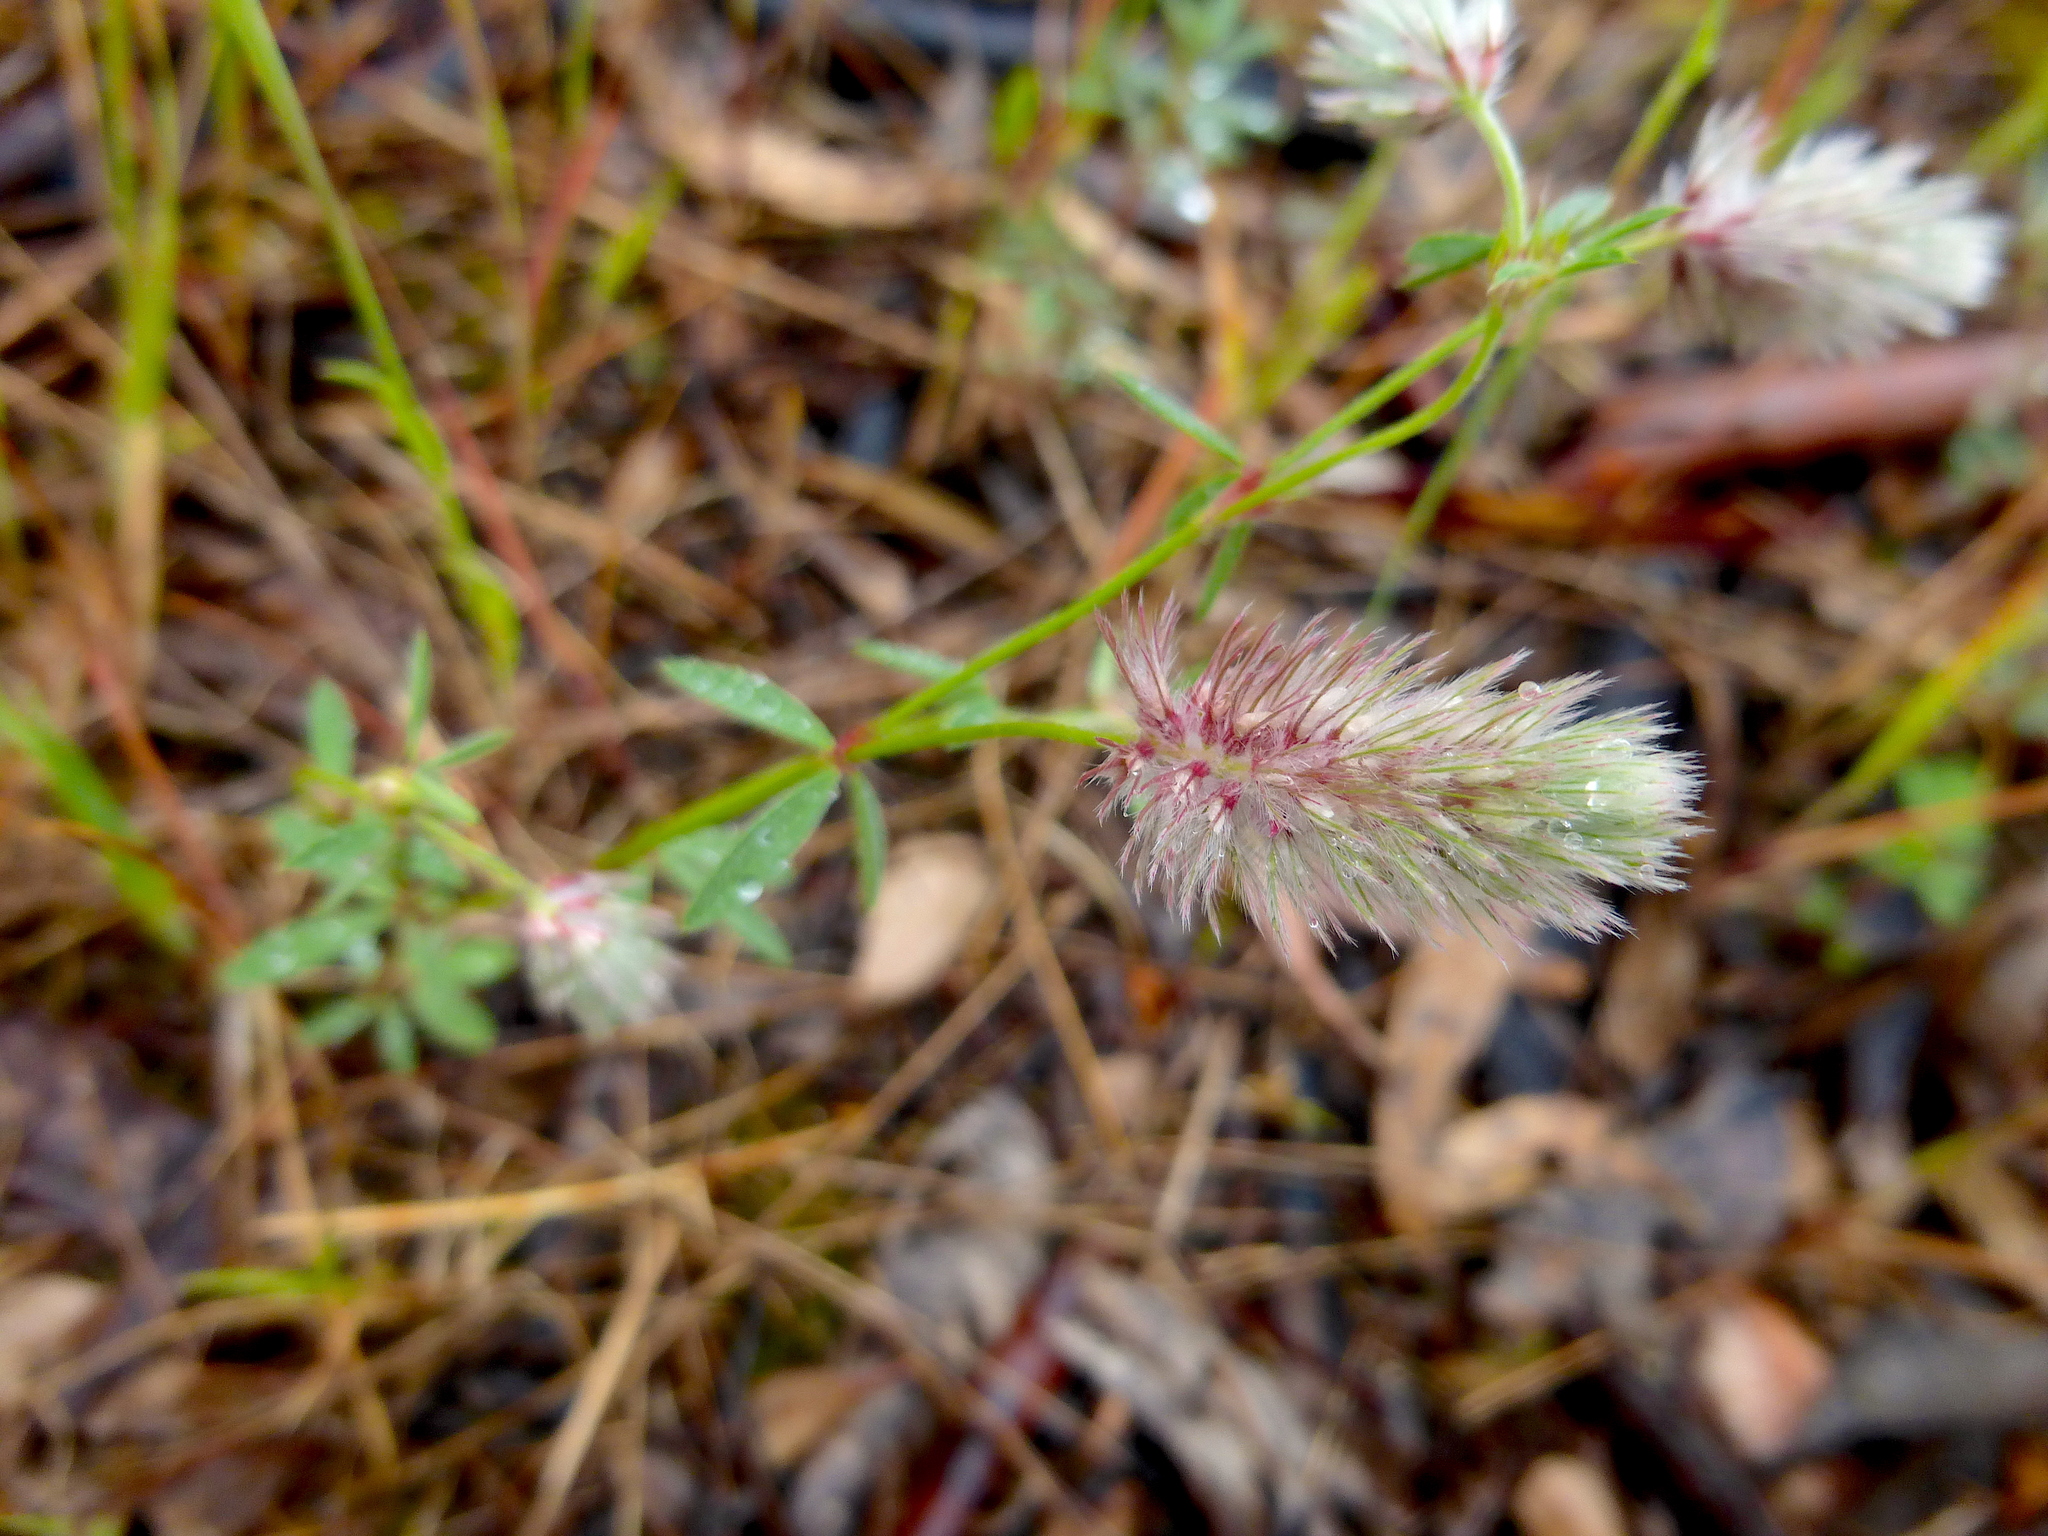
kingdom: Plantae
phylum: Tracheophyta
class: Magnoliopsida
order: Fabales
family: Fabaceae
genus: Trifolium
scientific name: Trifolium arvense
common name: Hare's-foot clover
